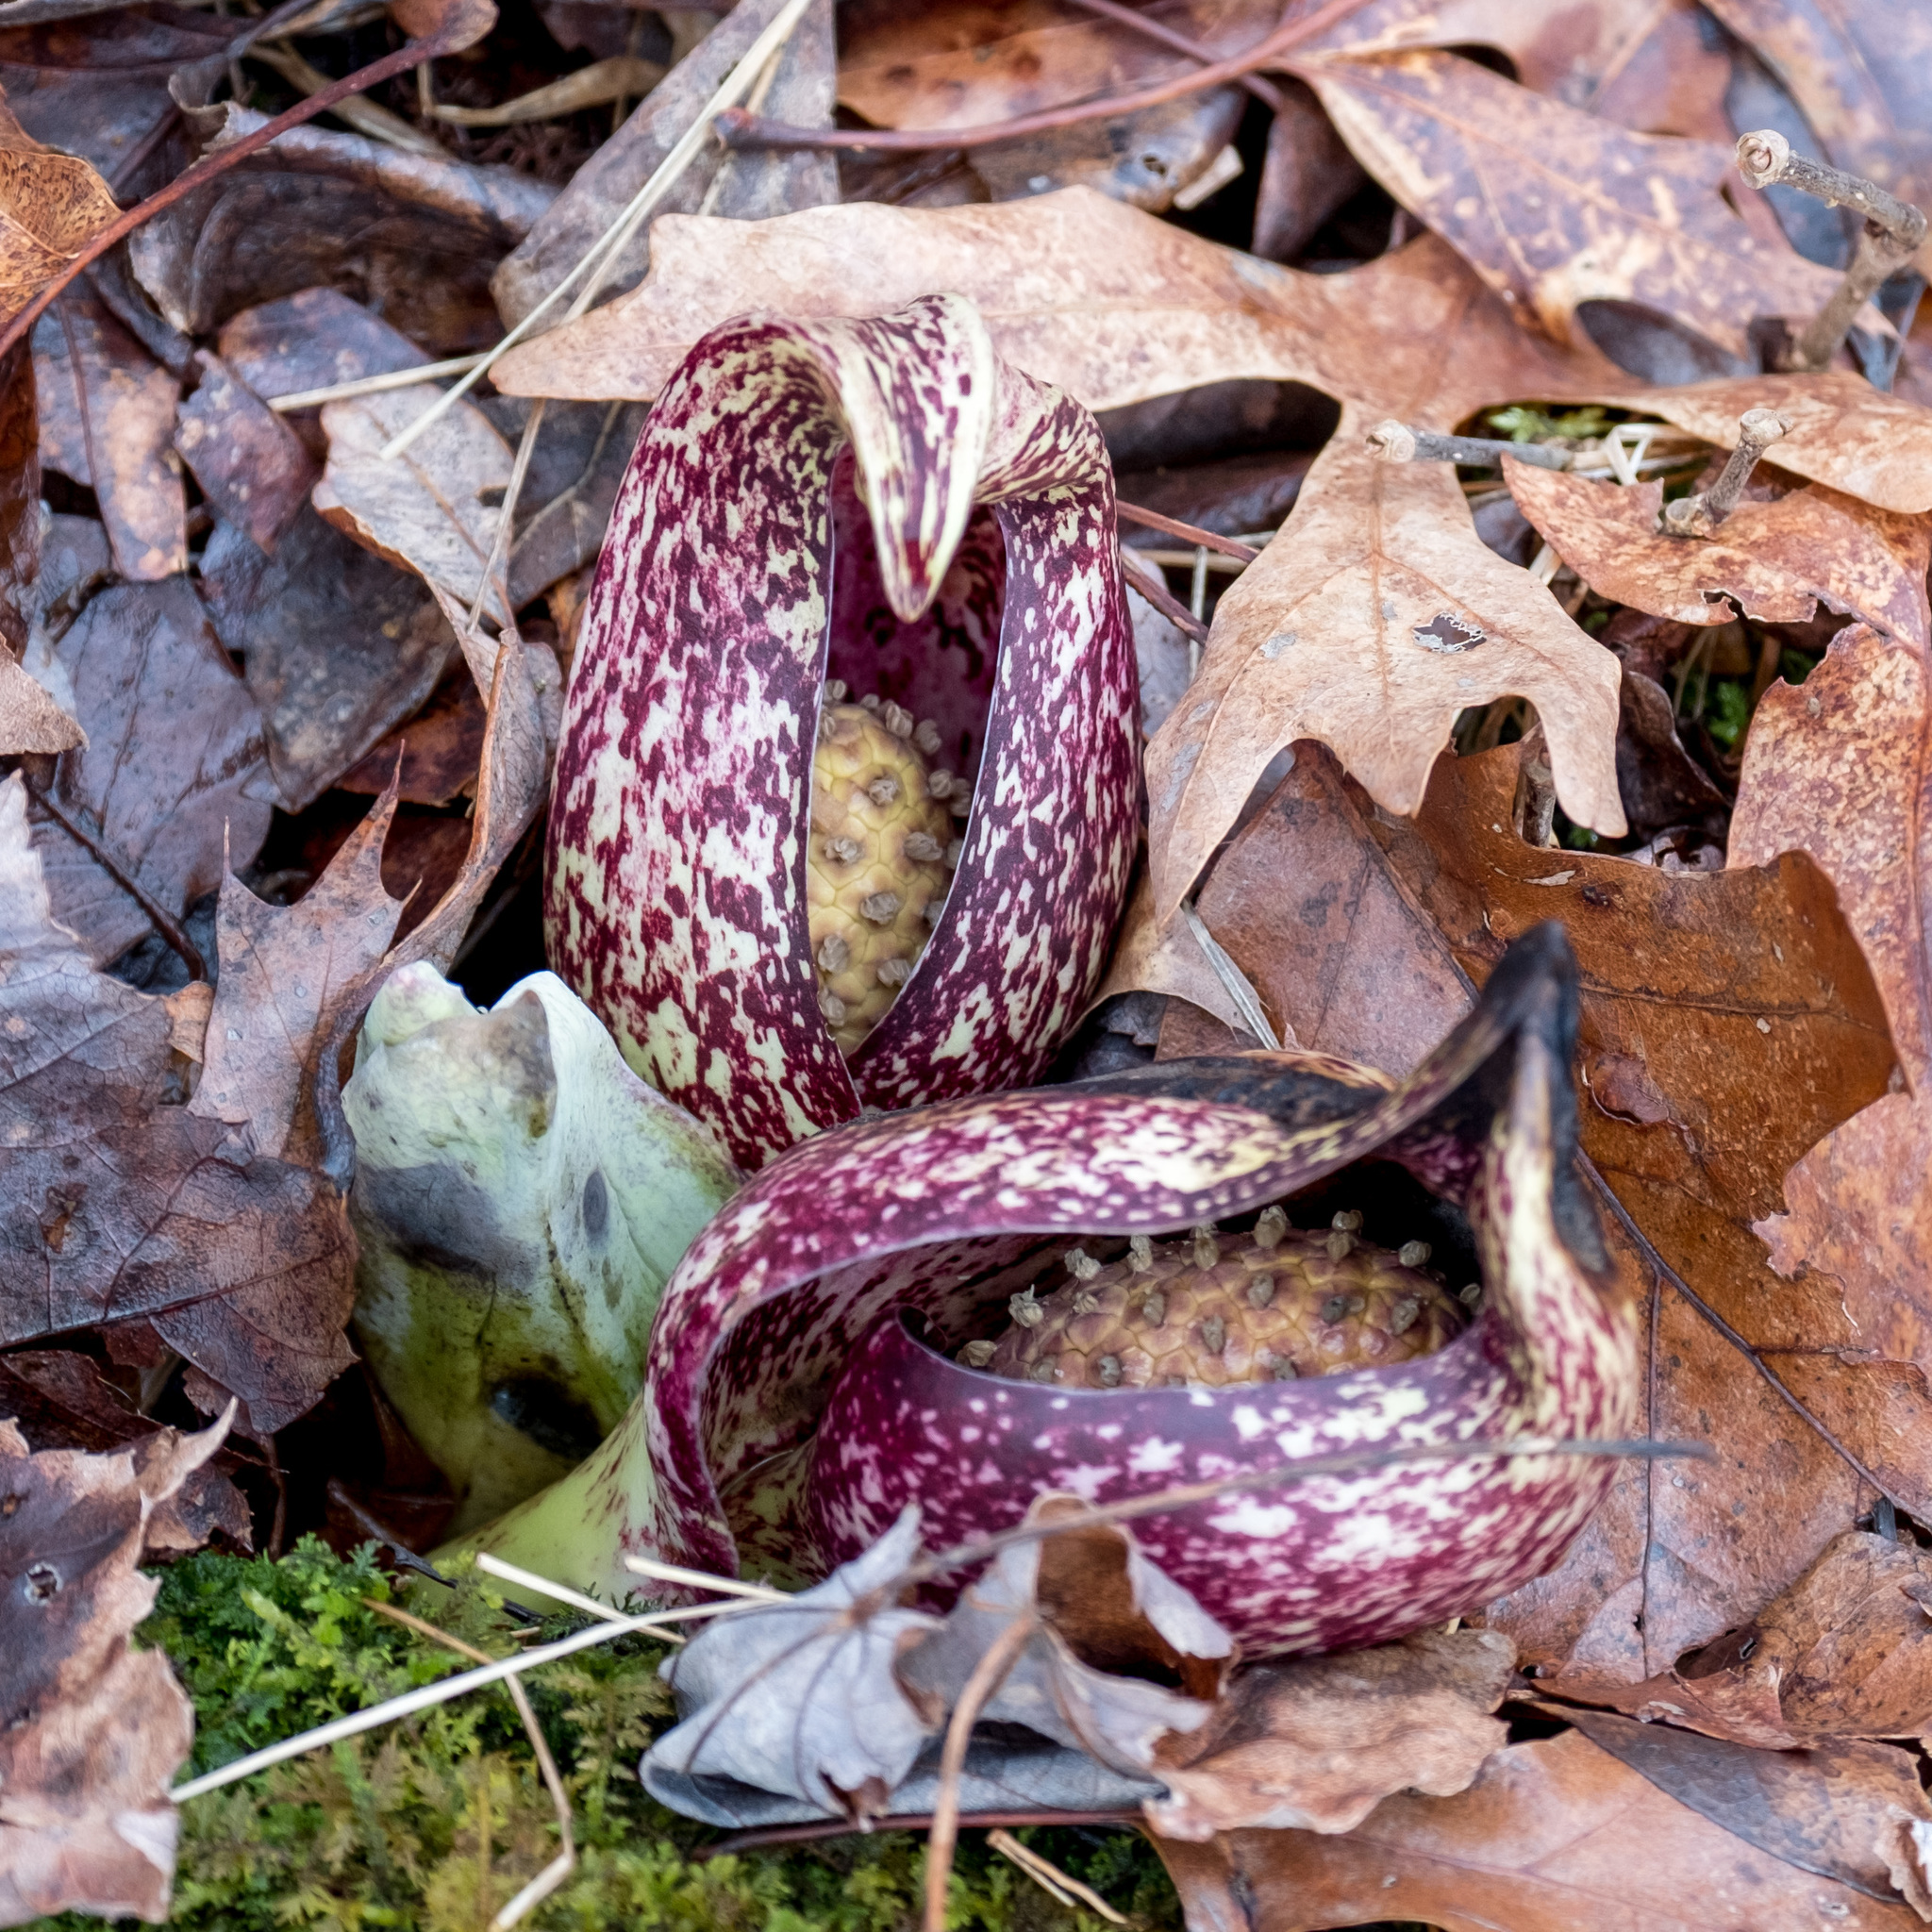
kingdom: Plantae
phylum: Tracheophyta
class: Liliopsida
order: Alismatales
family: Araceae
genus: Symplocarpus
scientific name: Symplocarpus foetidus
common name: Eastern skunk cabbage
